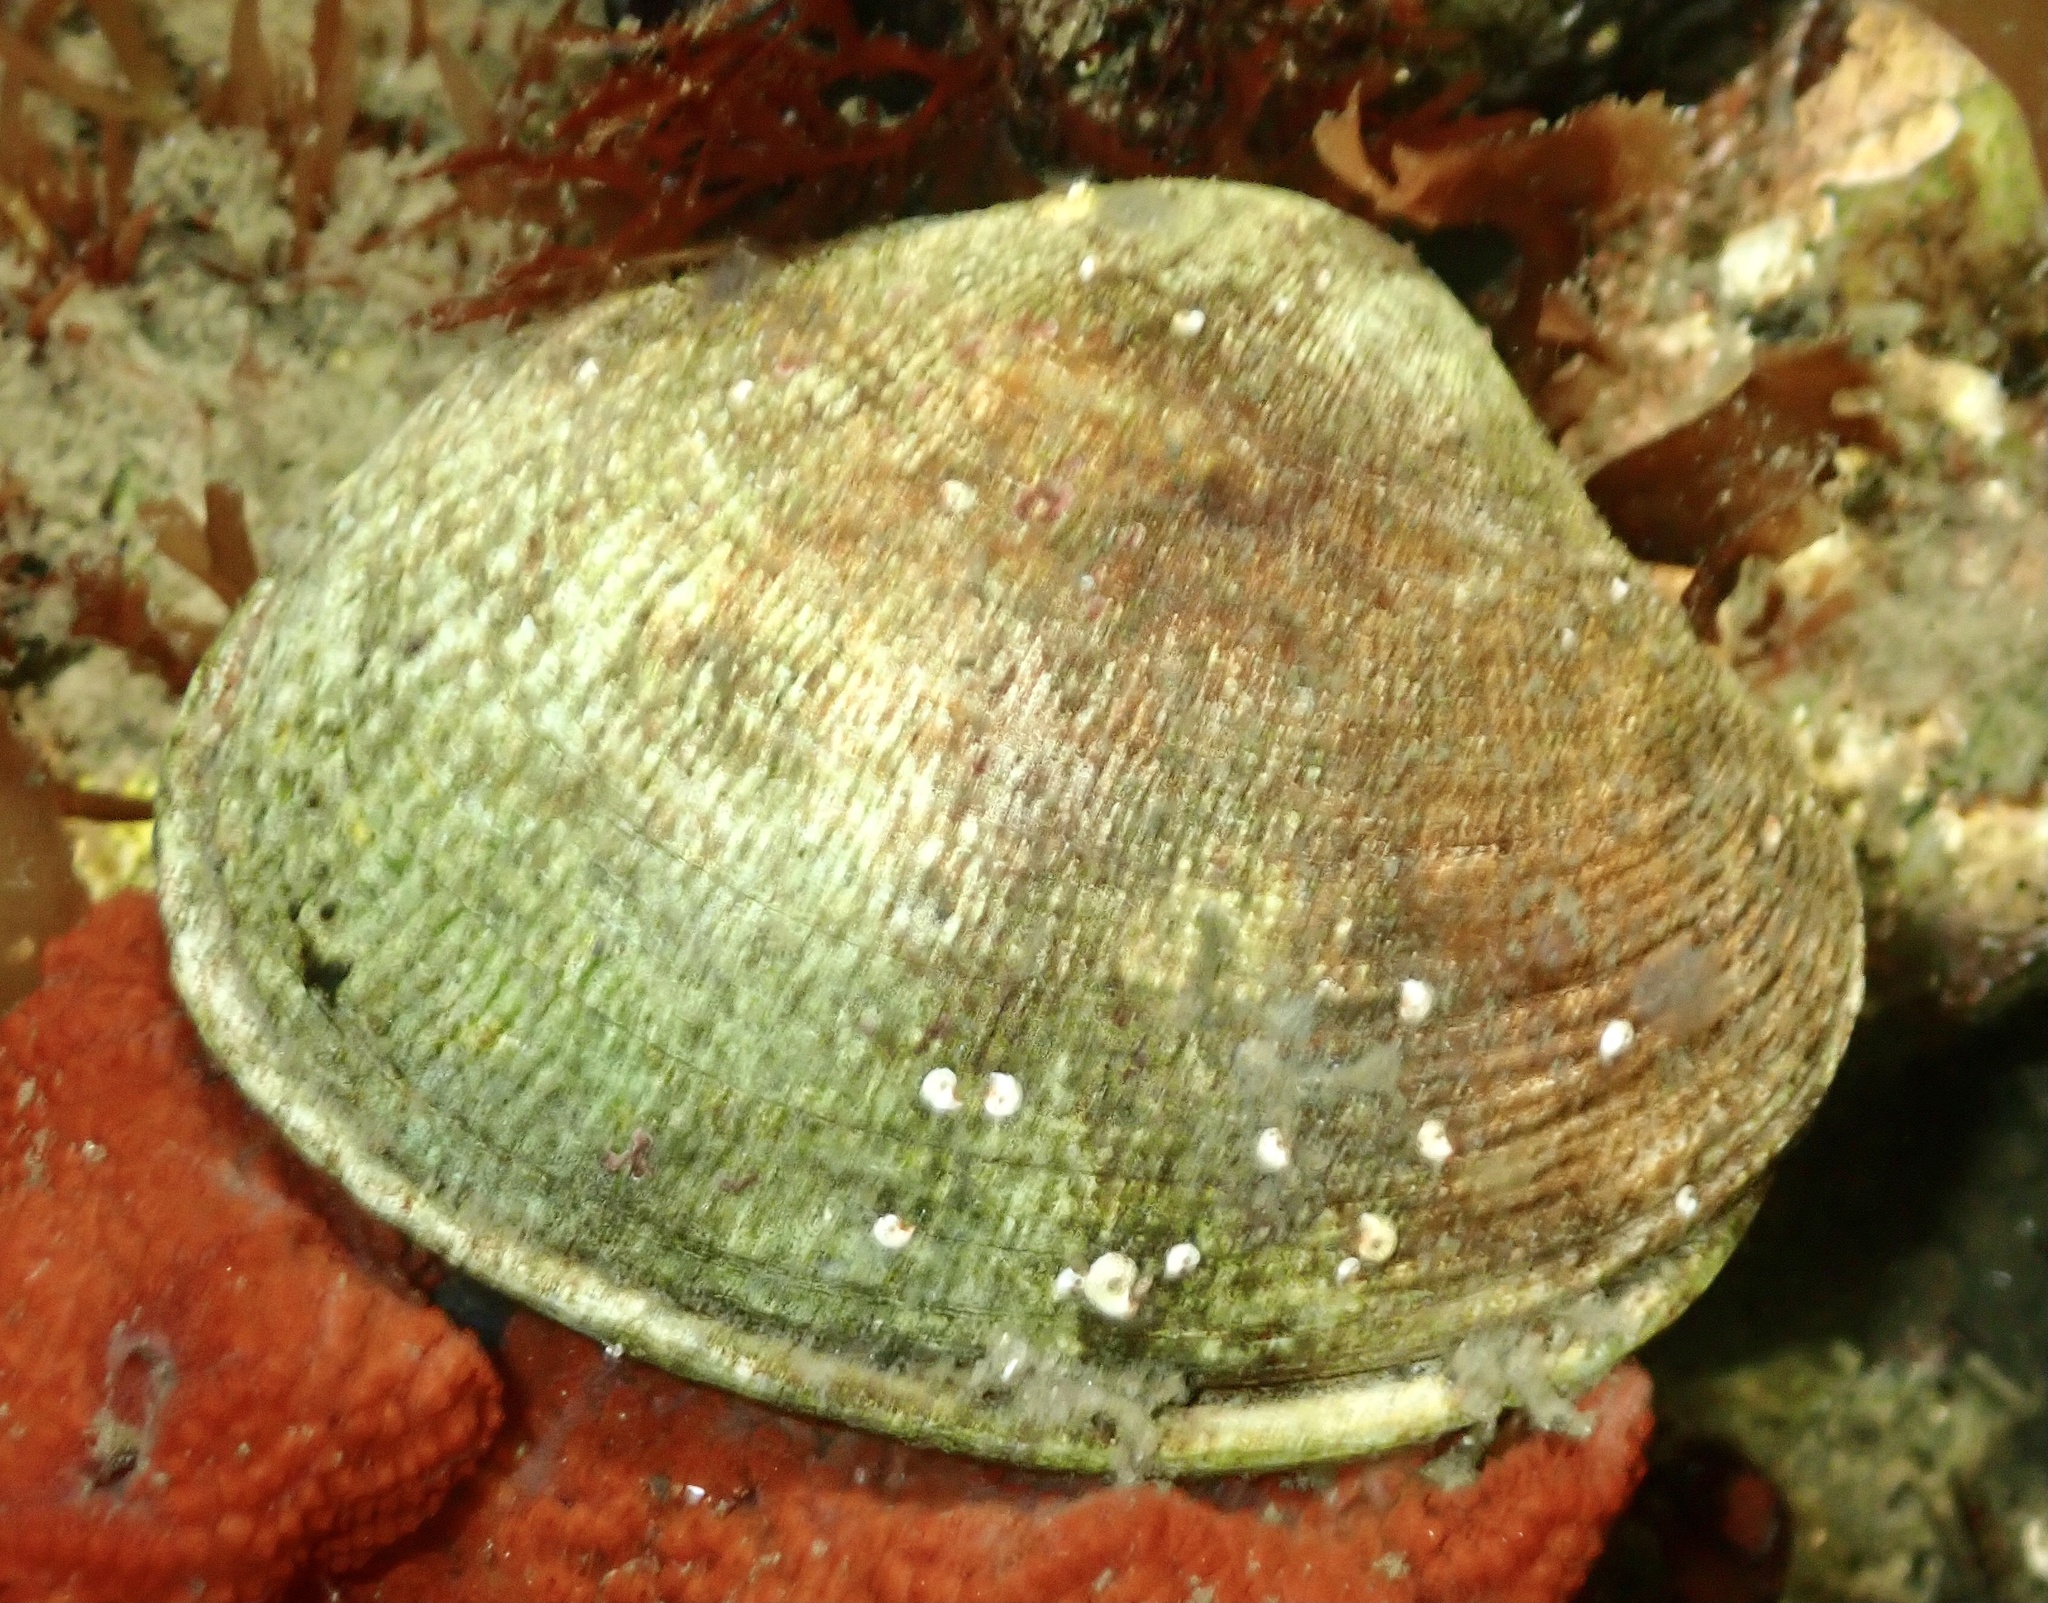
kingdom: Animalia
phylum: Mollusca
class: Bivalvia
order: Venerida
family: Veneridae
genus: Ruditapes
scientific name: Ruditapes philippinarum
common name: Manila clam
